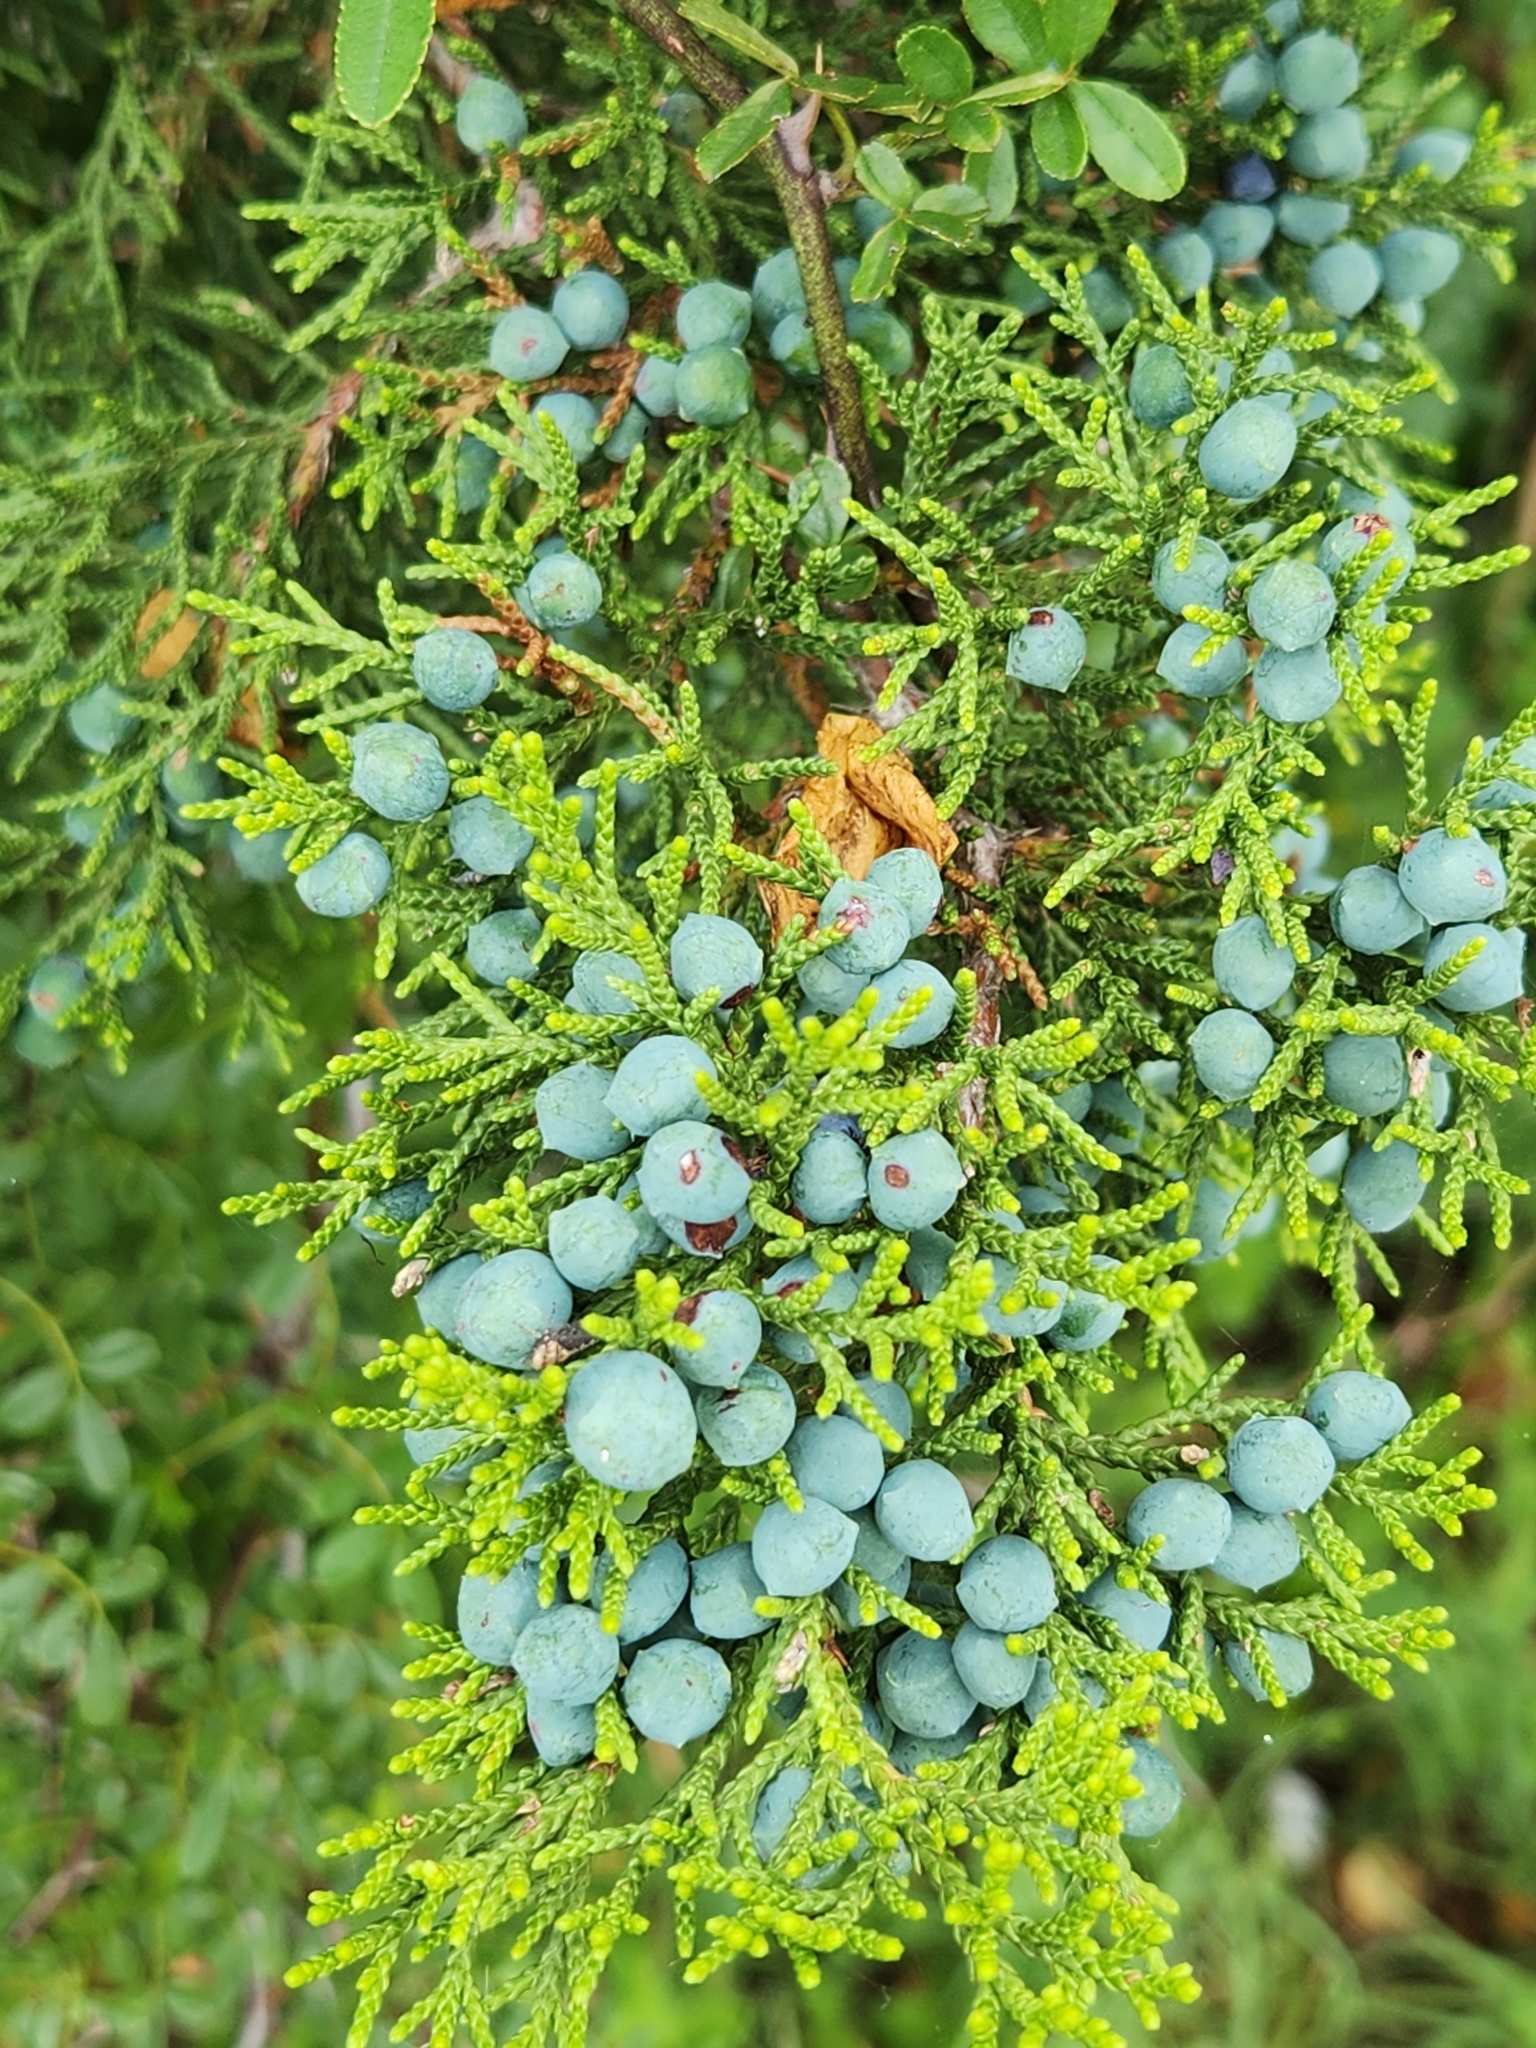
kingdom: Plantae
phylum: Tracheophyta
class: Pinopsida
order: Pinales
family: Cupressaceae
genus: Juniperus
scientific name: Juniperus ashei
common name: Mexican juniper
